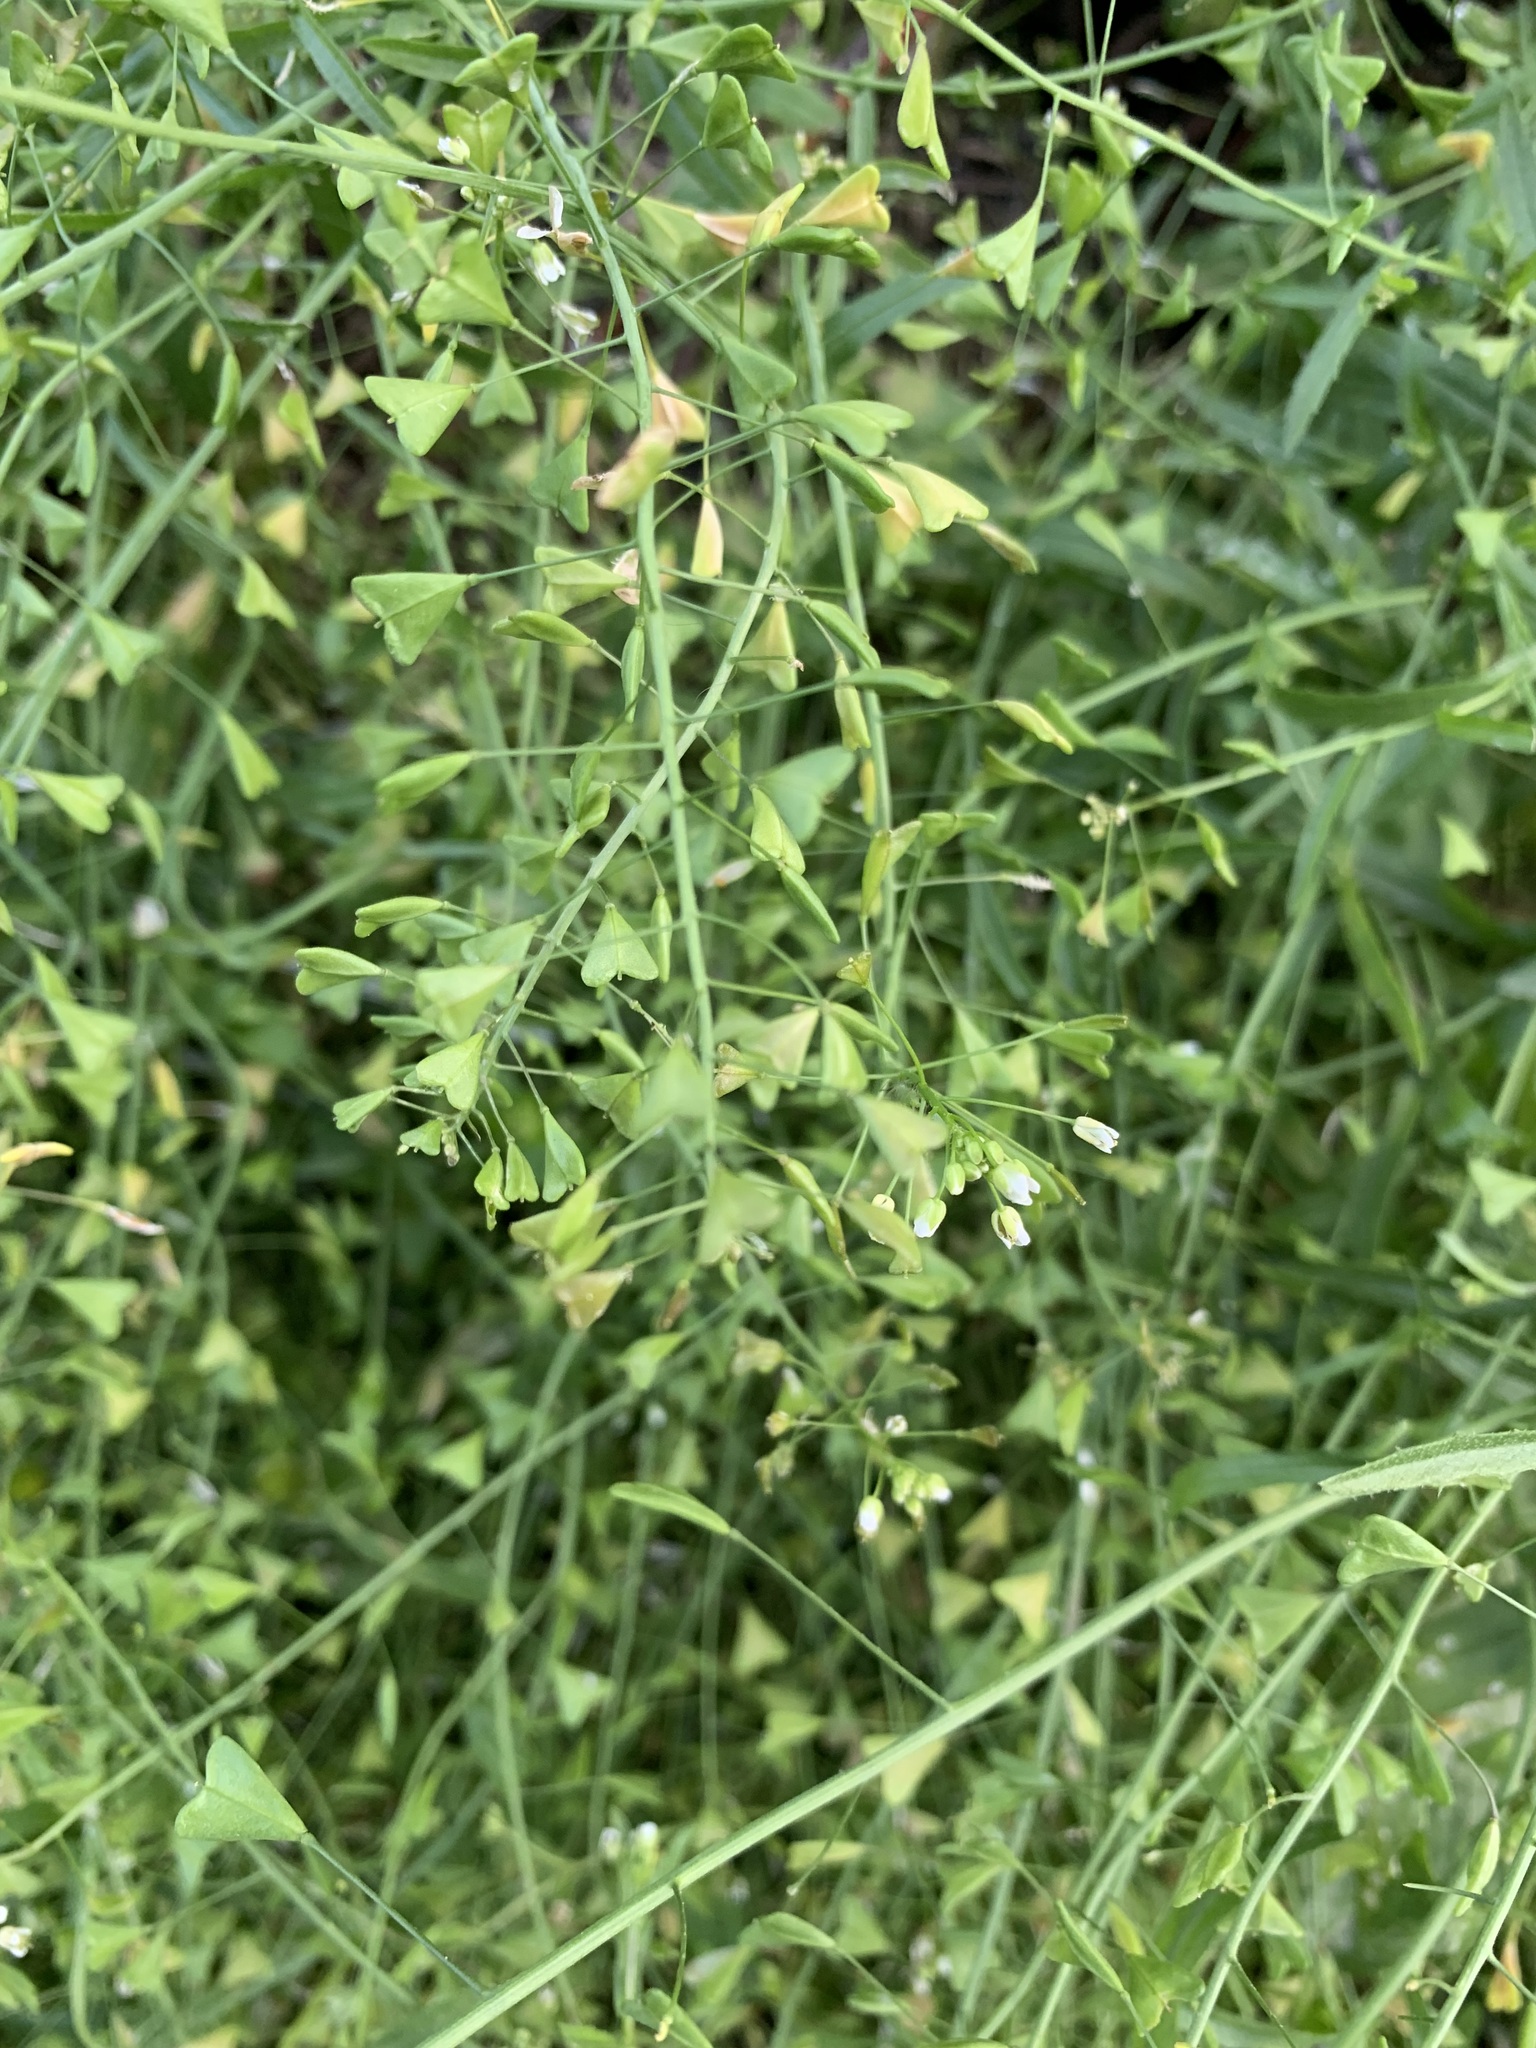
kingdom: Plantae
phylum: Tracheophyta
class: Magnoliopsida
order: Brassicales
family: Brassicaceae
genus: Capsella
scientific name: Capsella bursa-pastoris
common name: Shepherd's purse
